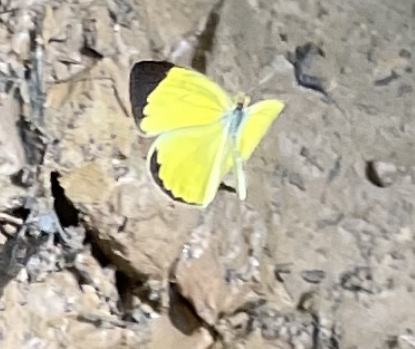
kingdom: Animalia
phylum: Arthropoda
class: Insecta
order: Lepidoptera
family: Pieridae
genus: Pyrisitia
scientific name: Pyrisitia lisa
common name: Little yellow
